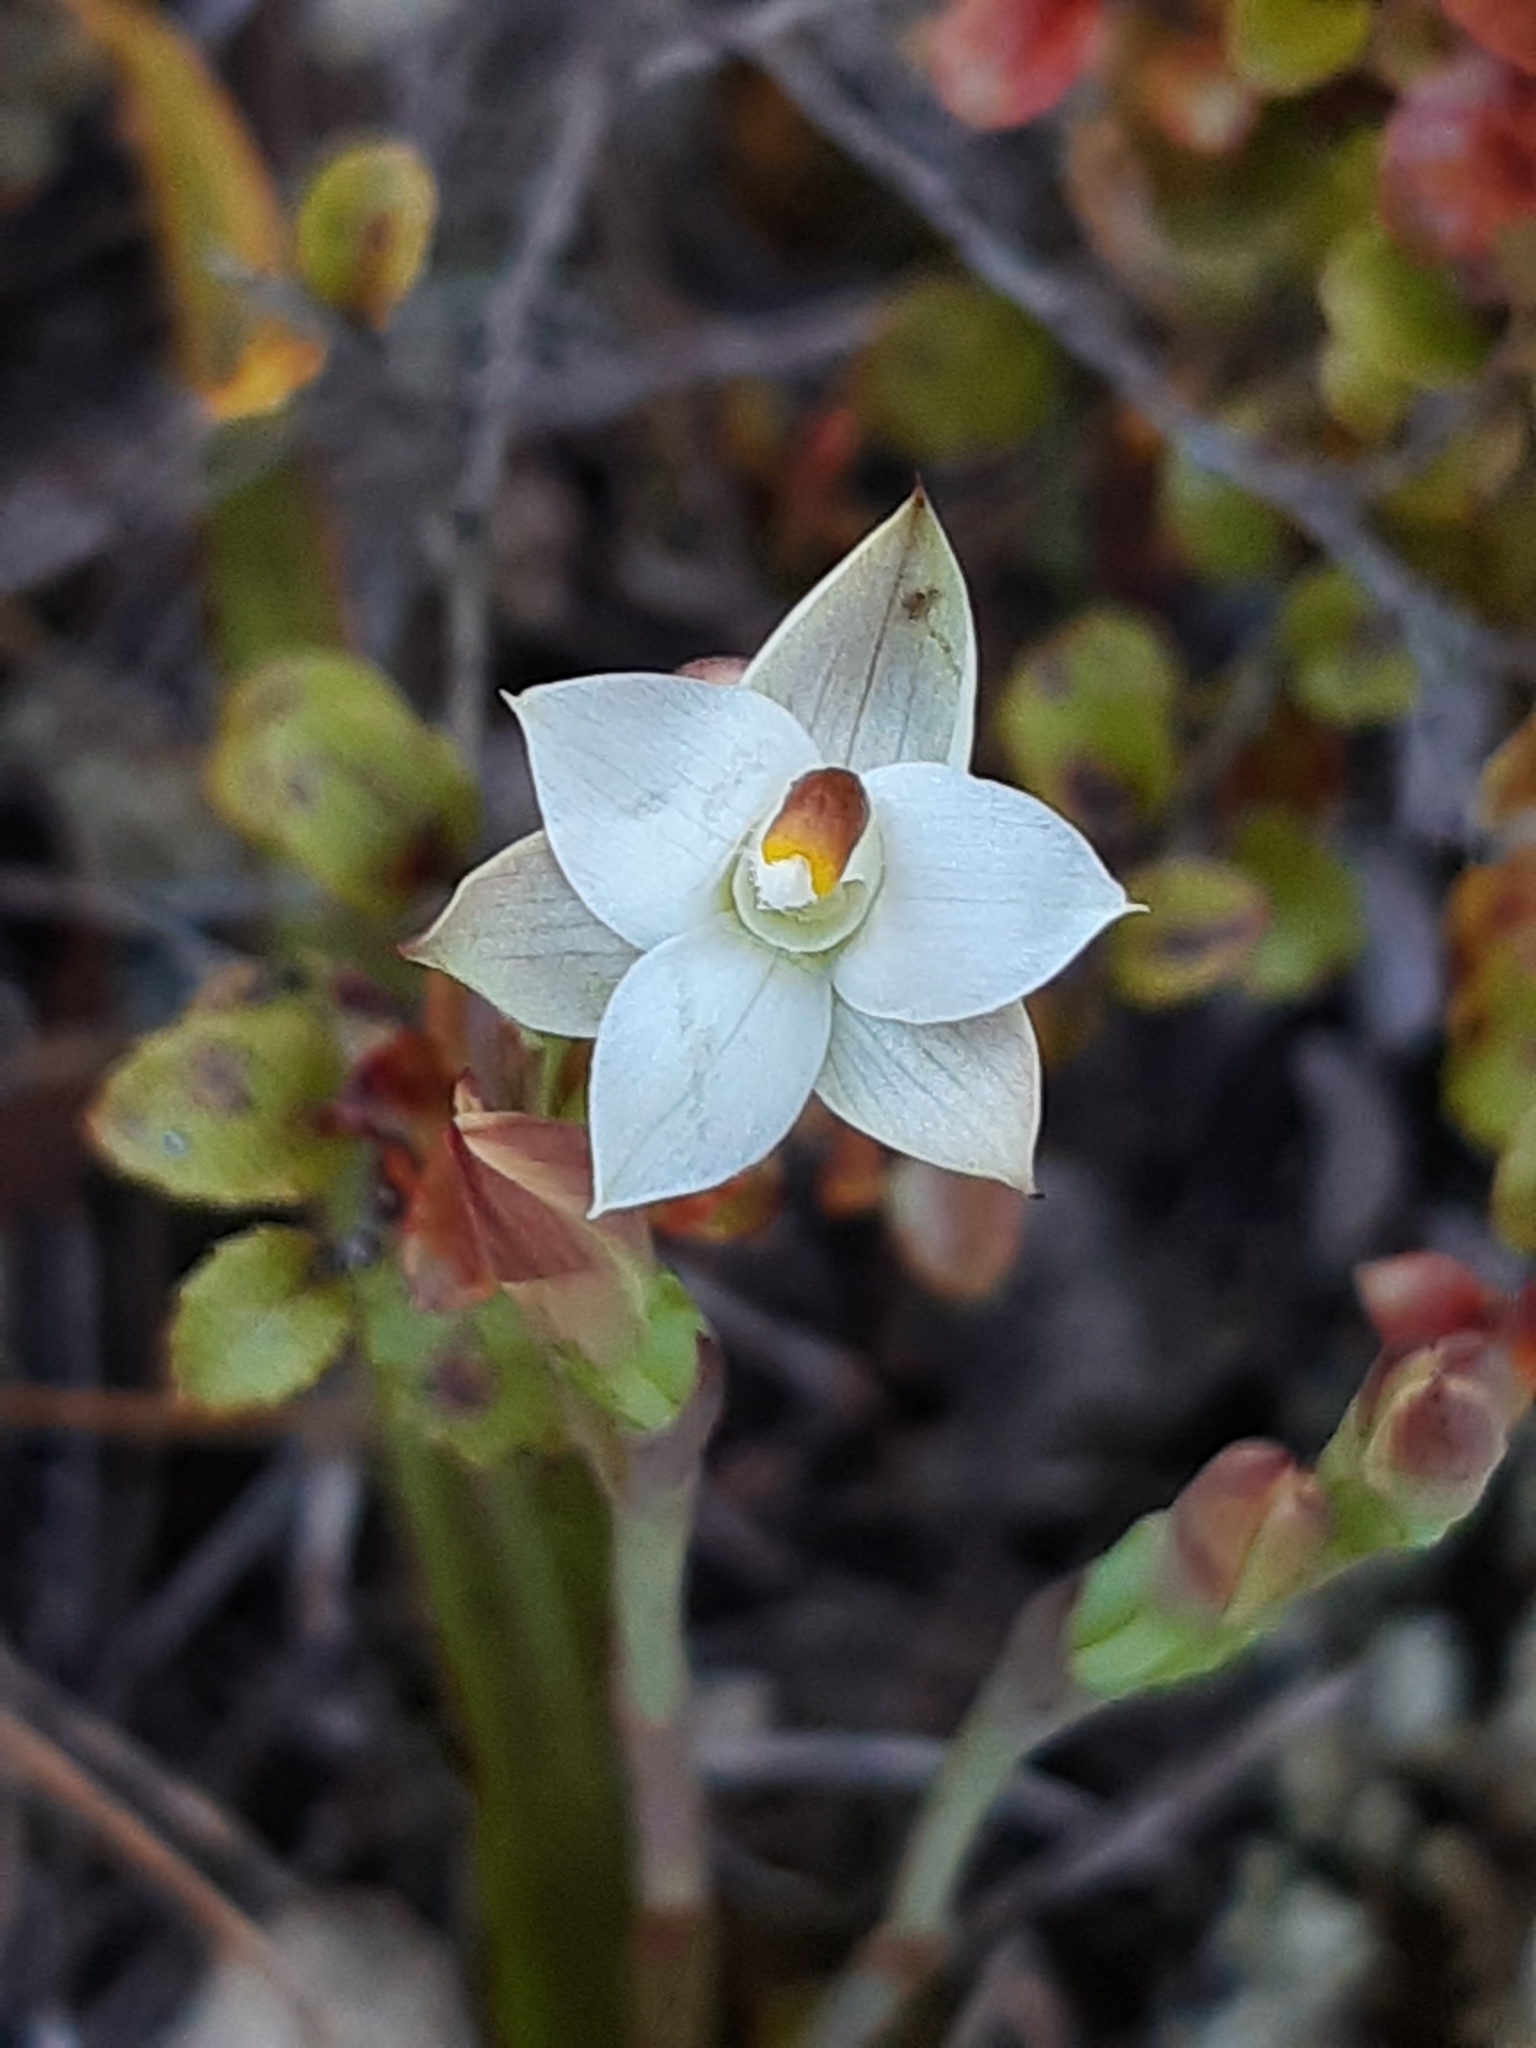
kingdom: Plantae
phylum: Tracheophyta
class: Liliopsida
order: Asparagales
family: Orchidaceae
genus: Thelymitra
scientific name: Thelymitra longifolia
